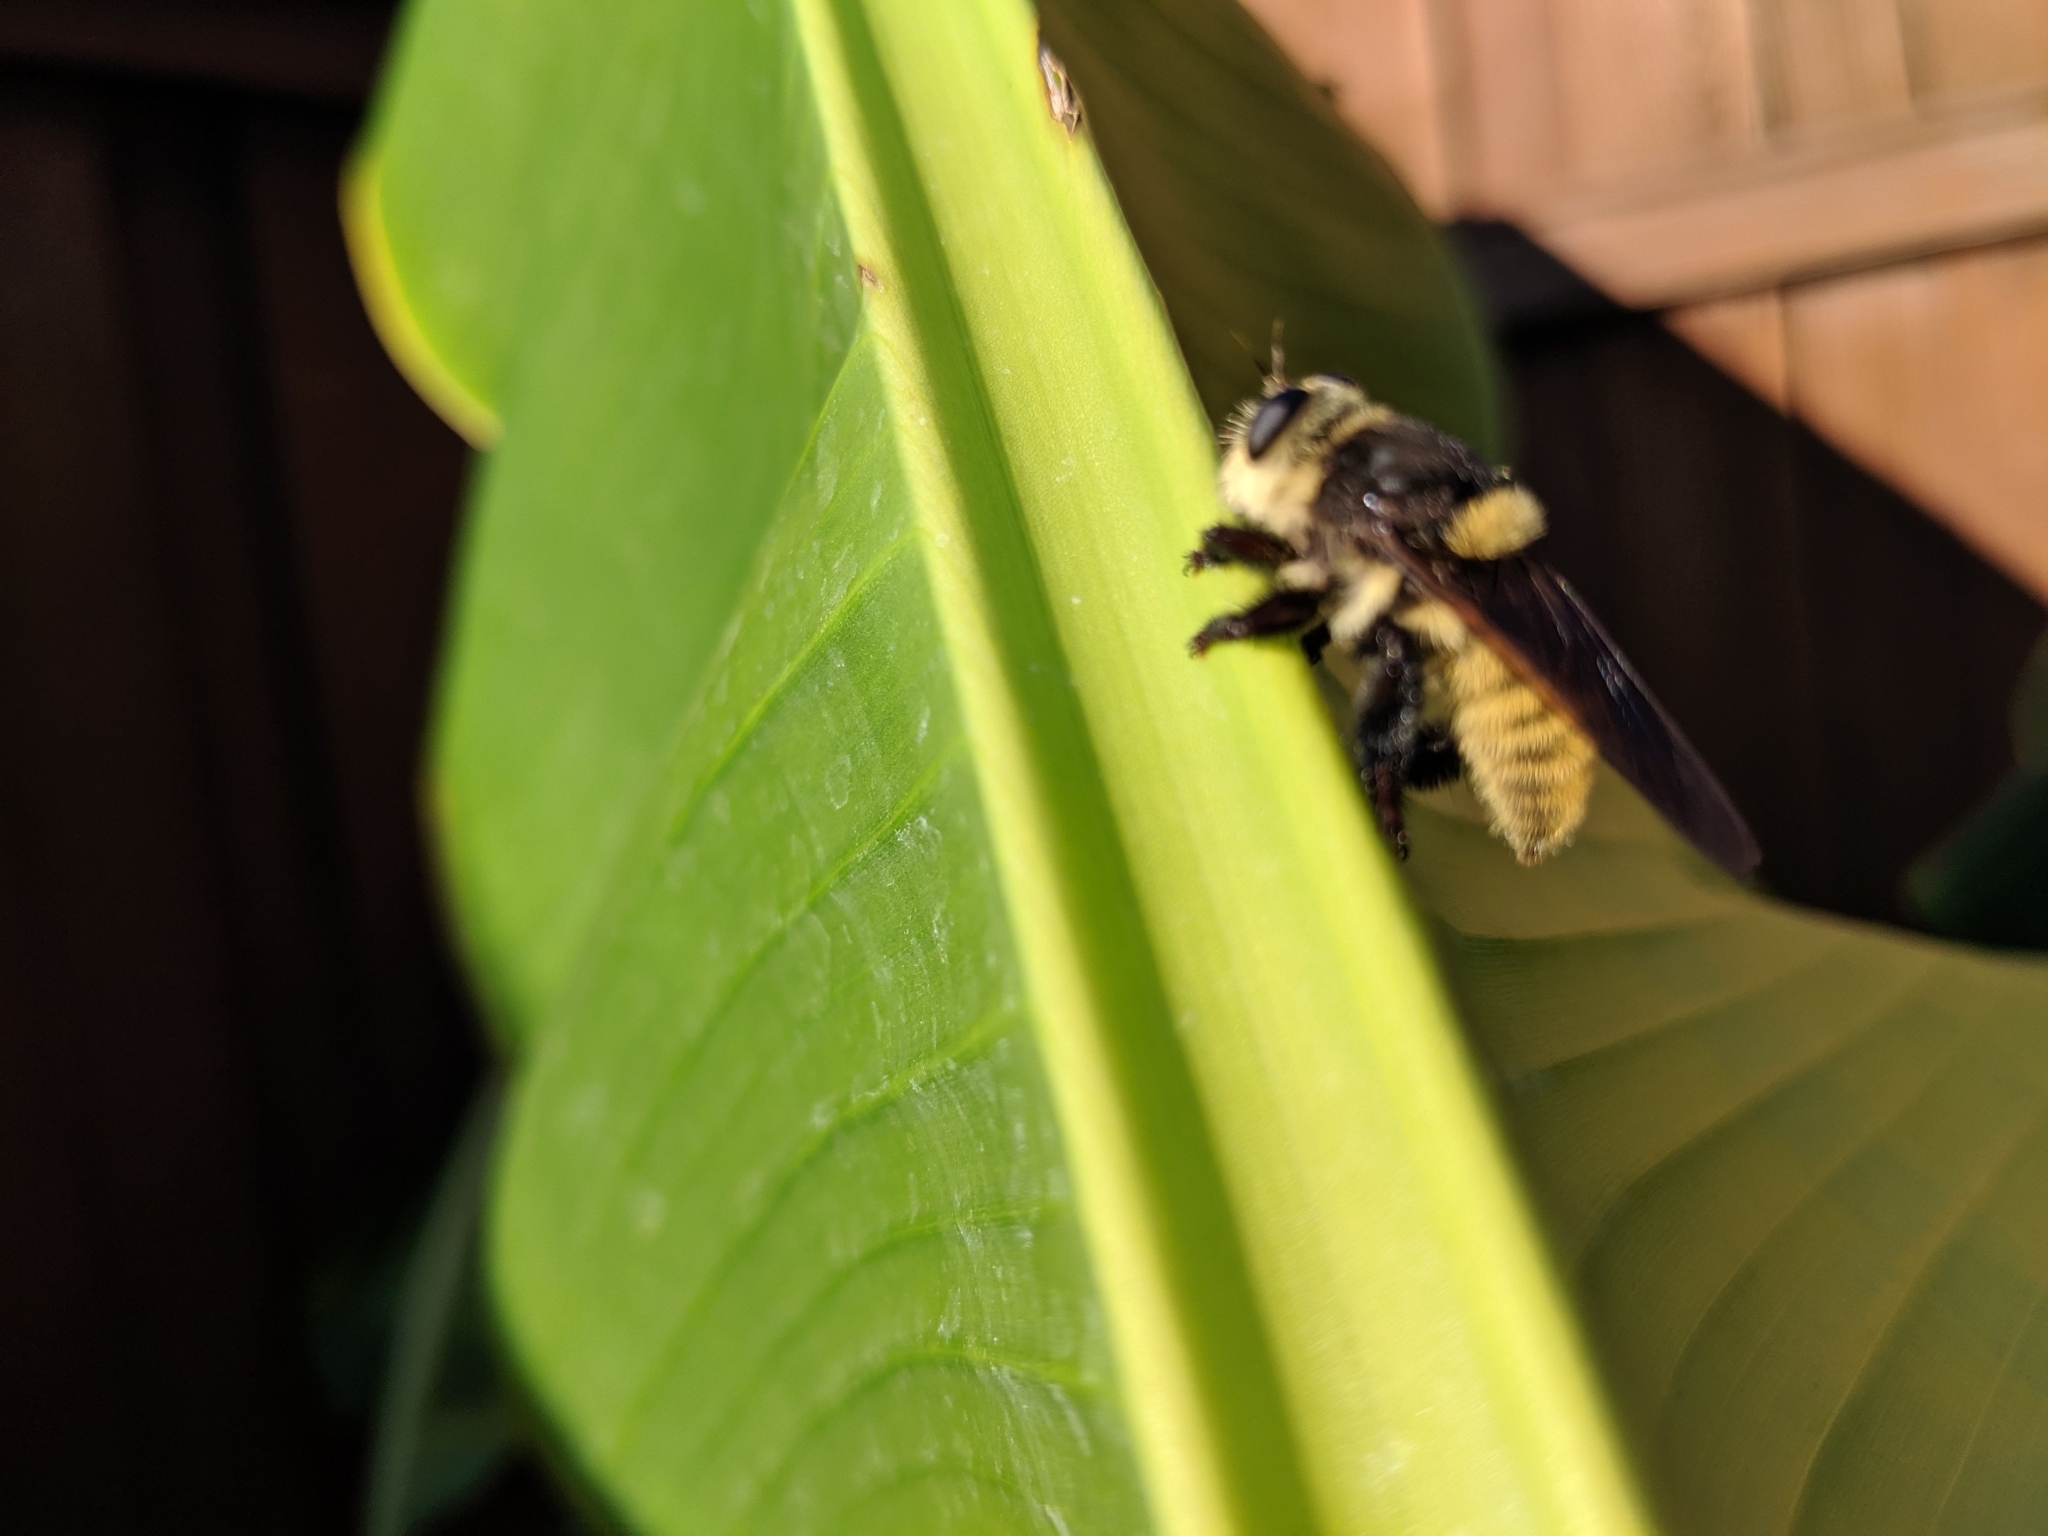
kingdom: Animalia
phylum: Arthropoda
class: Insecta
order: Diptera
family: Asilidae
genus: Mallophora
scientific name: Mallophora fautrix
